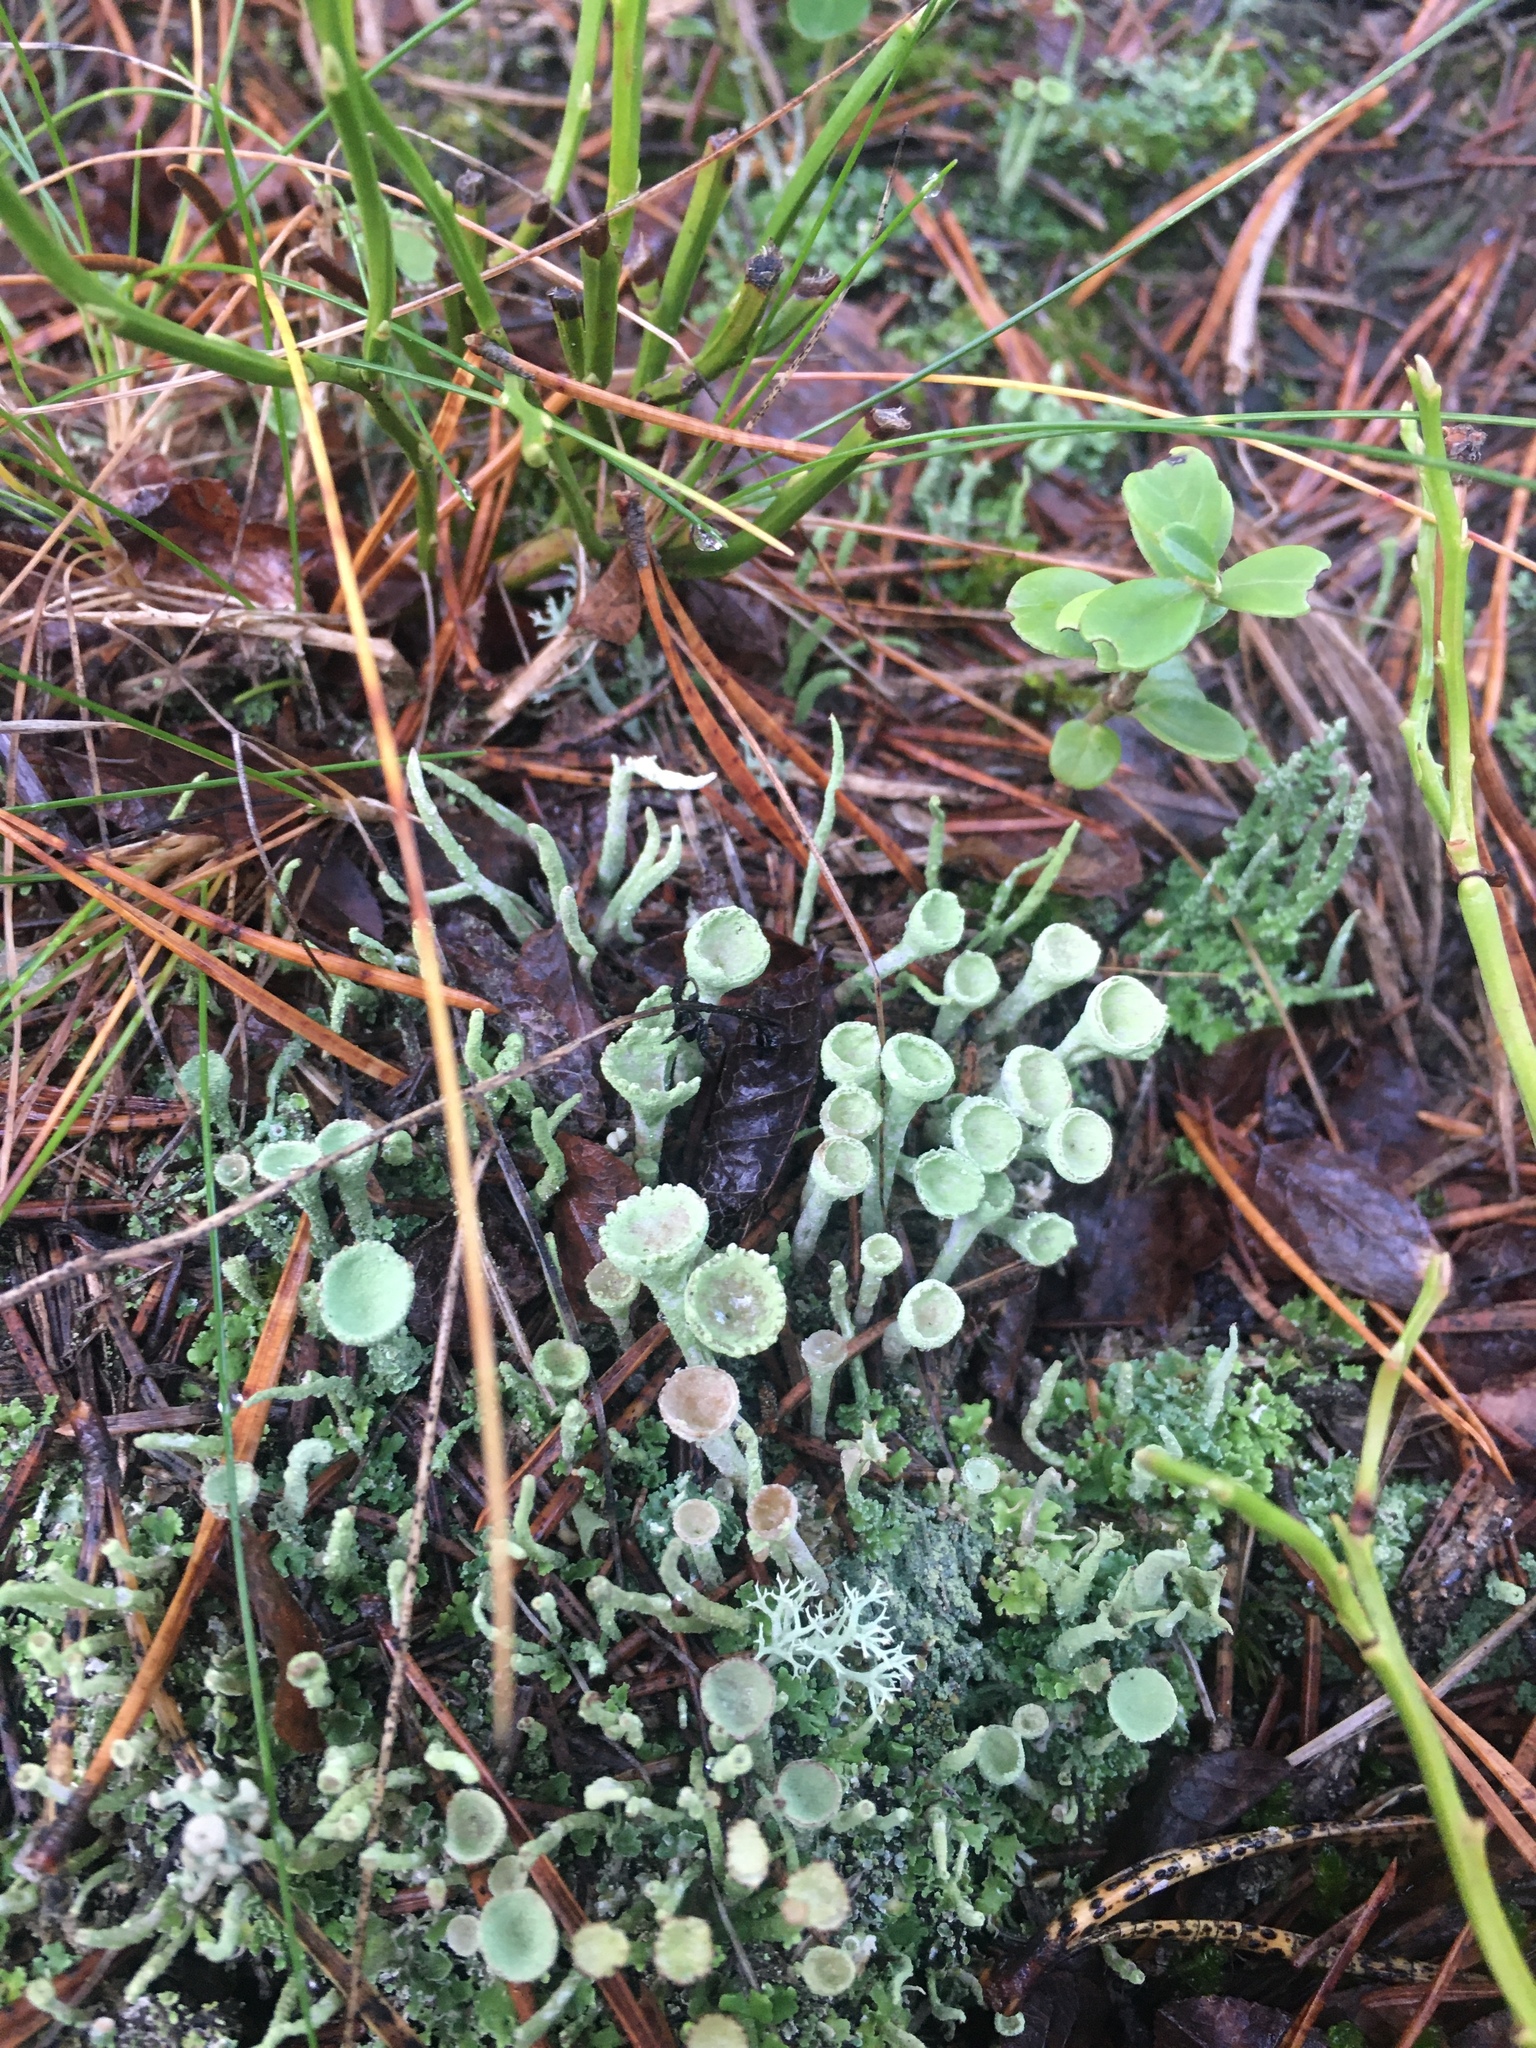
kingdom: Fungi
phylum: Ascomycota
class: Lecanoromycetes
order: Lecanorales
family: Cladoniaceae
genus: Cladonia
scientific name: Cladonia fimbriata
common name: Powdered trumpet lichen
